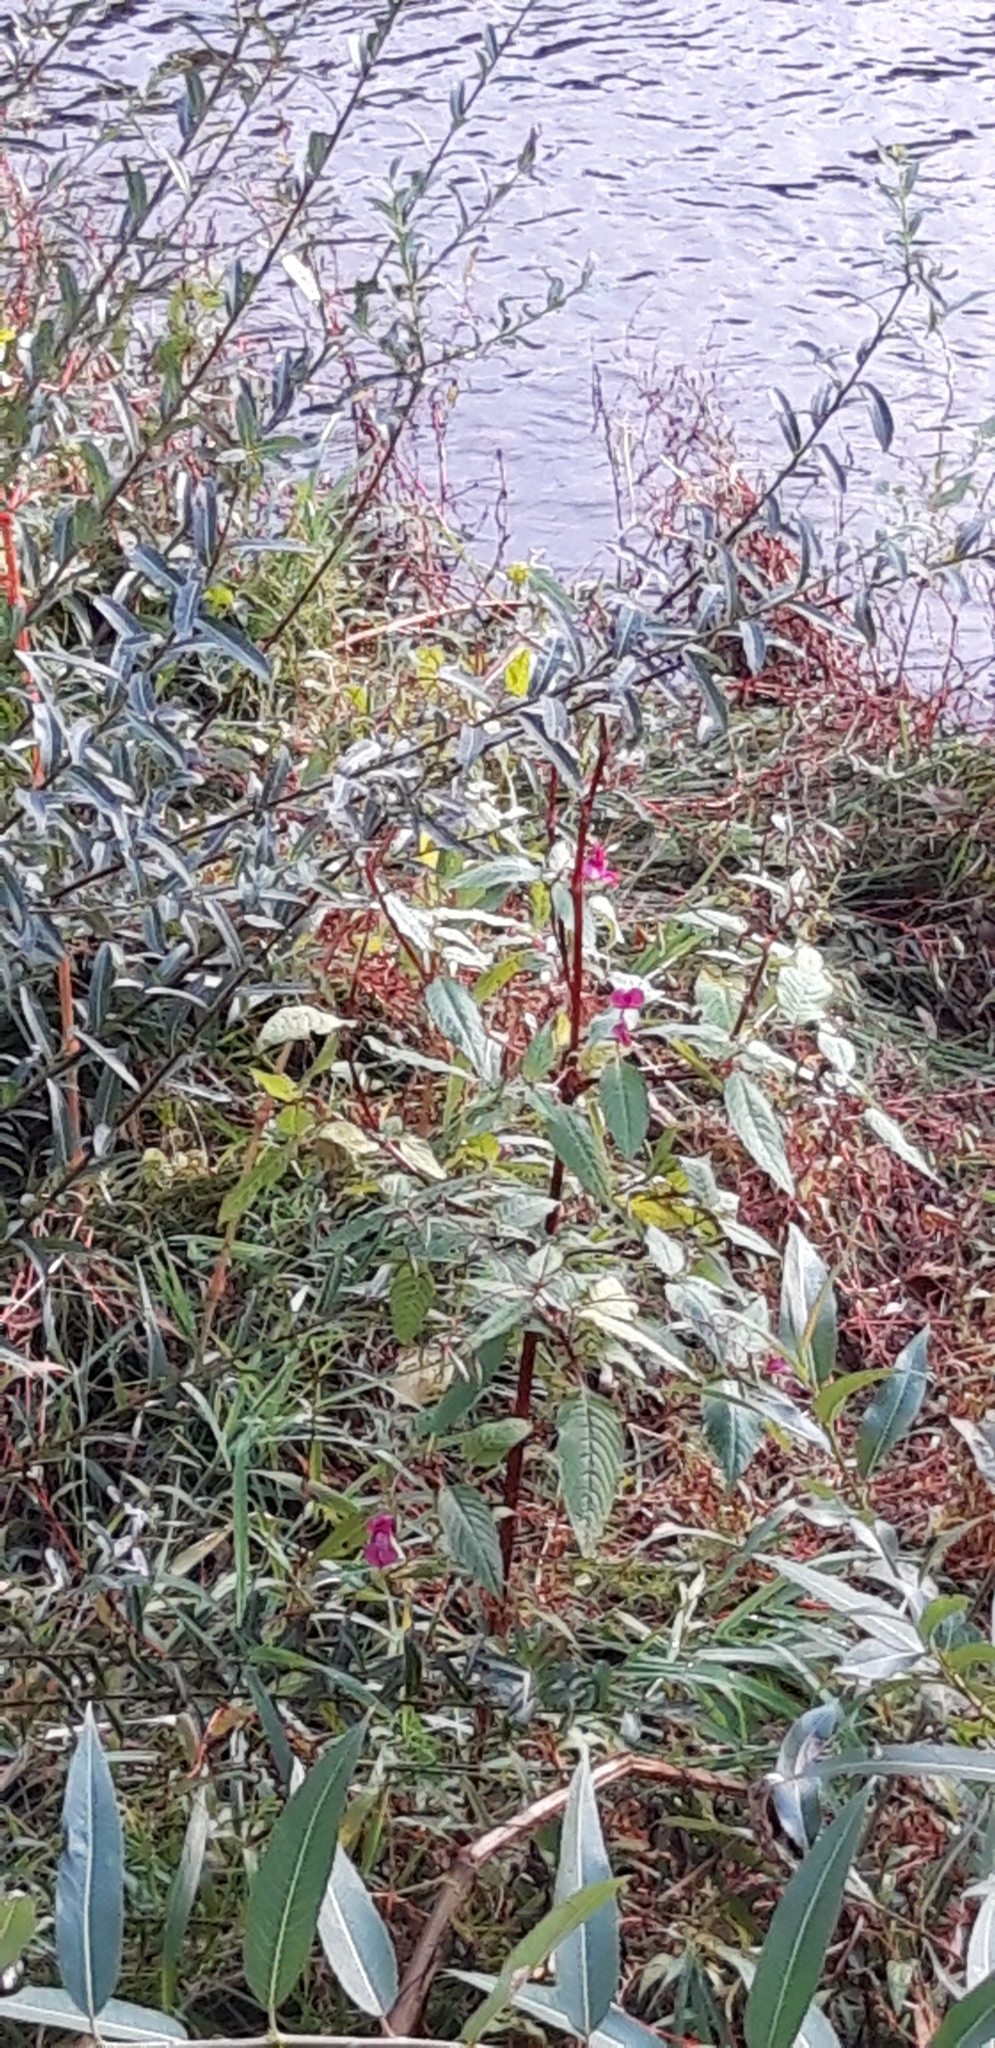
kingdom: Plantae
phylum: Tracheophyta
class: Magnoliopsida
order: Ericales
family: Balsaminaceae
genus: Impatiens
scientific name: Impatiens glandulifera
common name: Himalayan balsam
